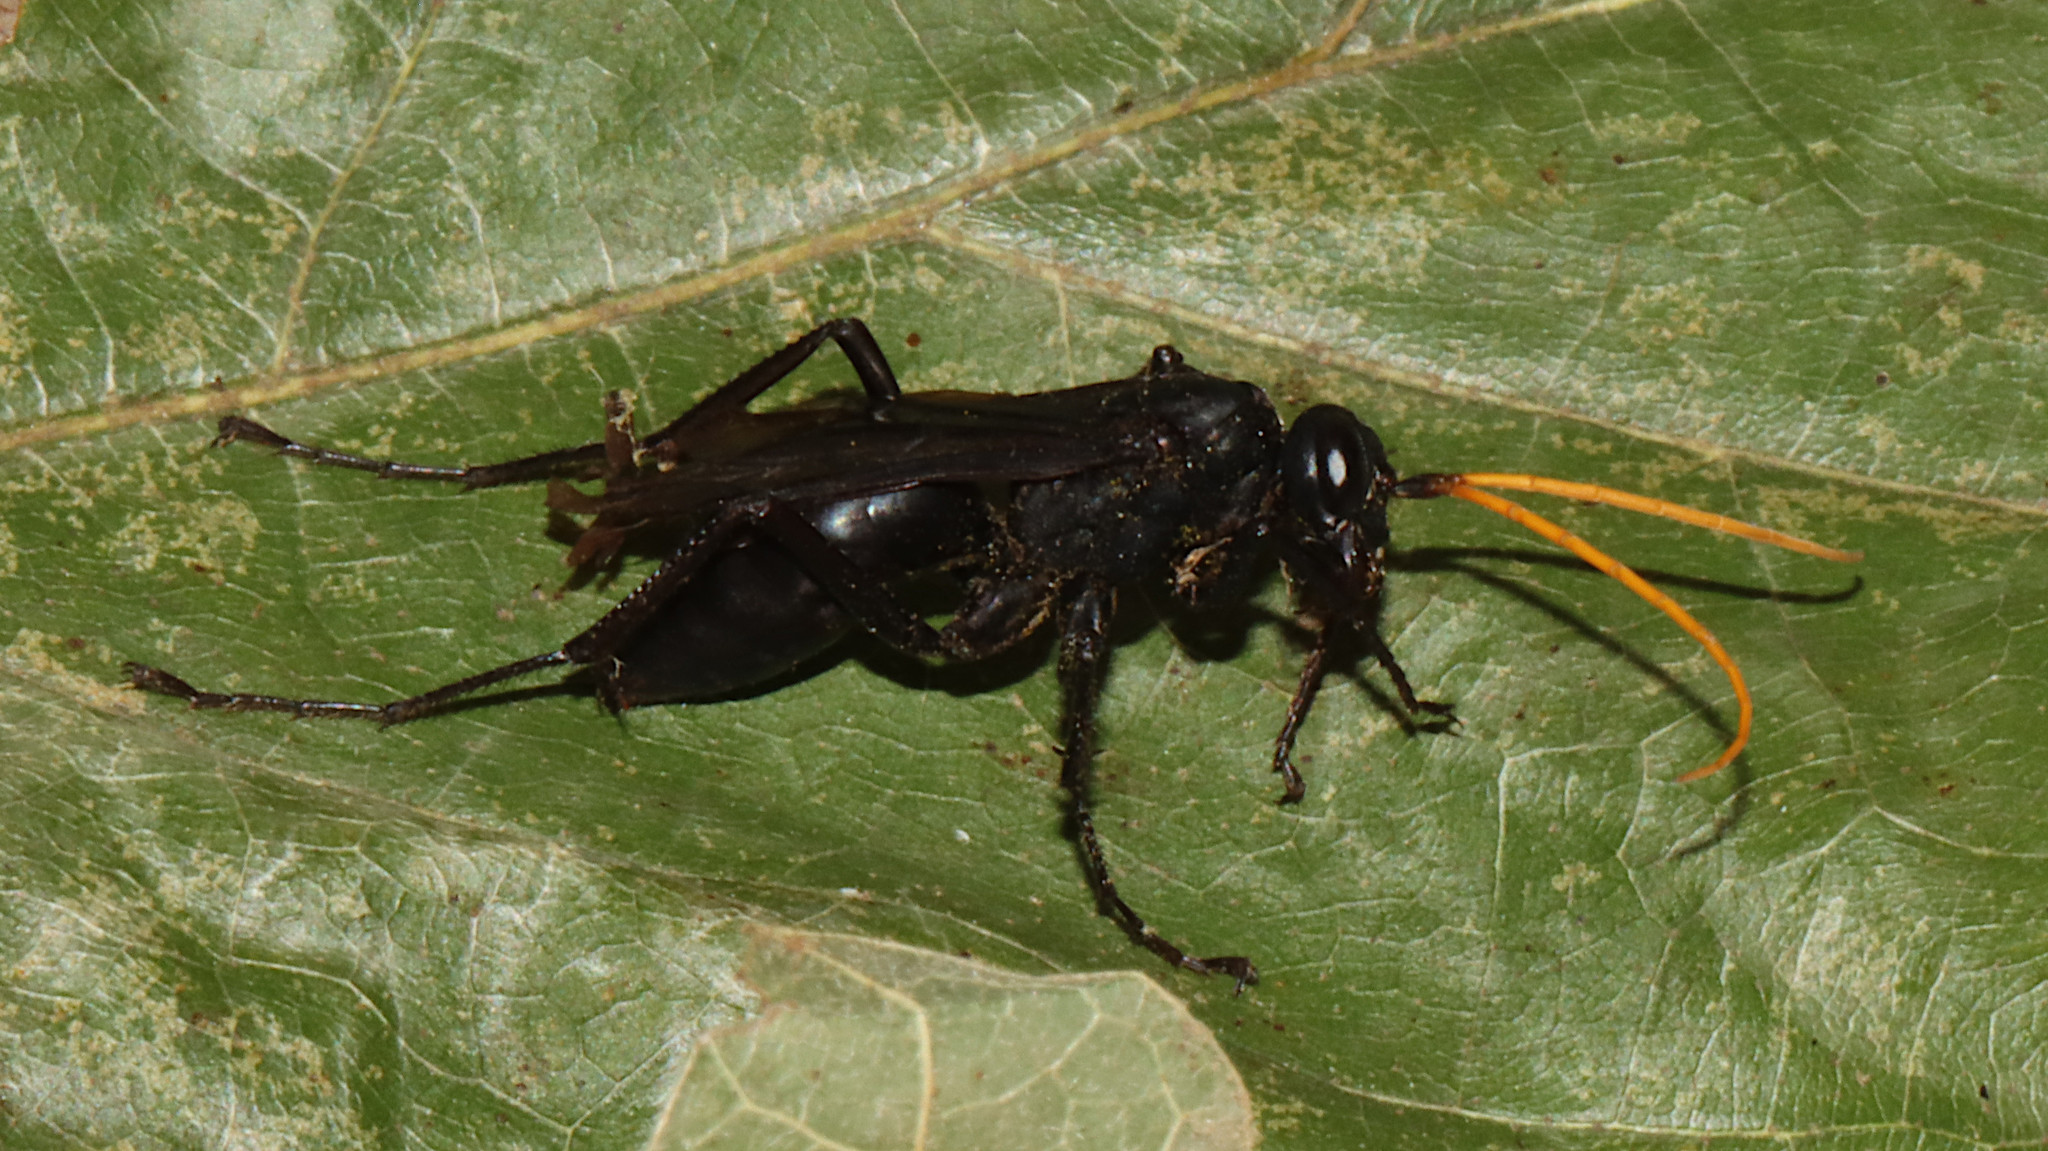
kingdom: Animalia
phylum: Arthropoda
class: Insecta
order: Hymenoptera
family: Pompilidae
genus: Entypus
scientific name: Entypus fulvicornis
